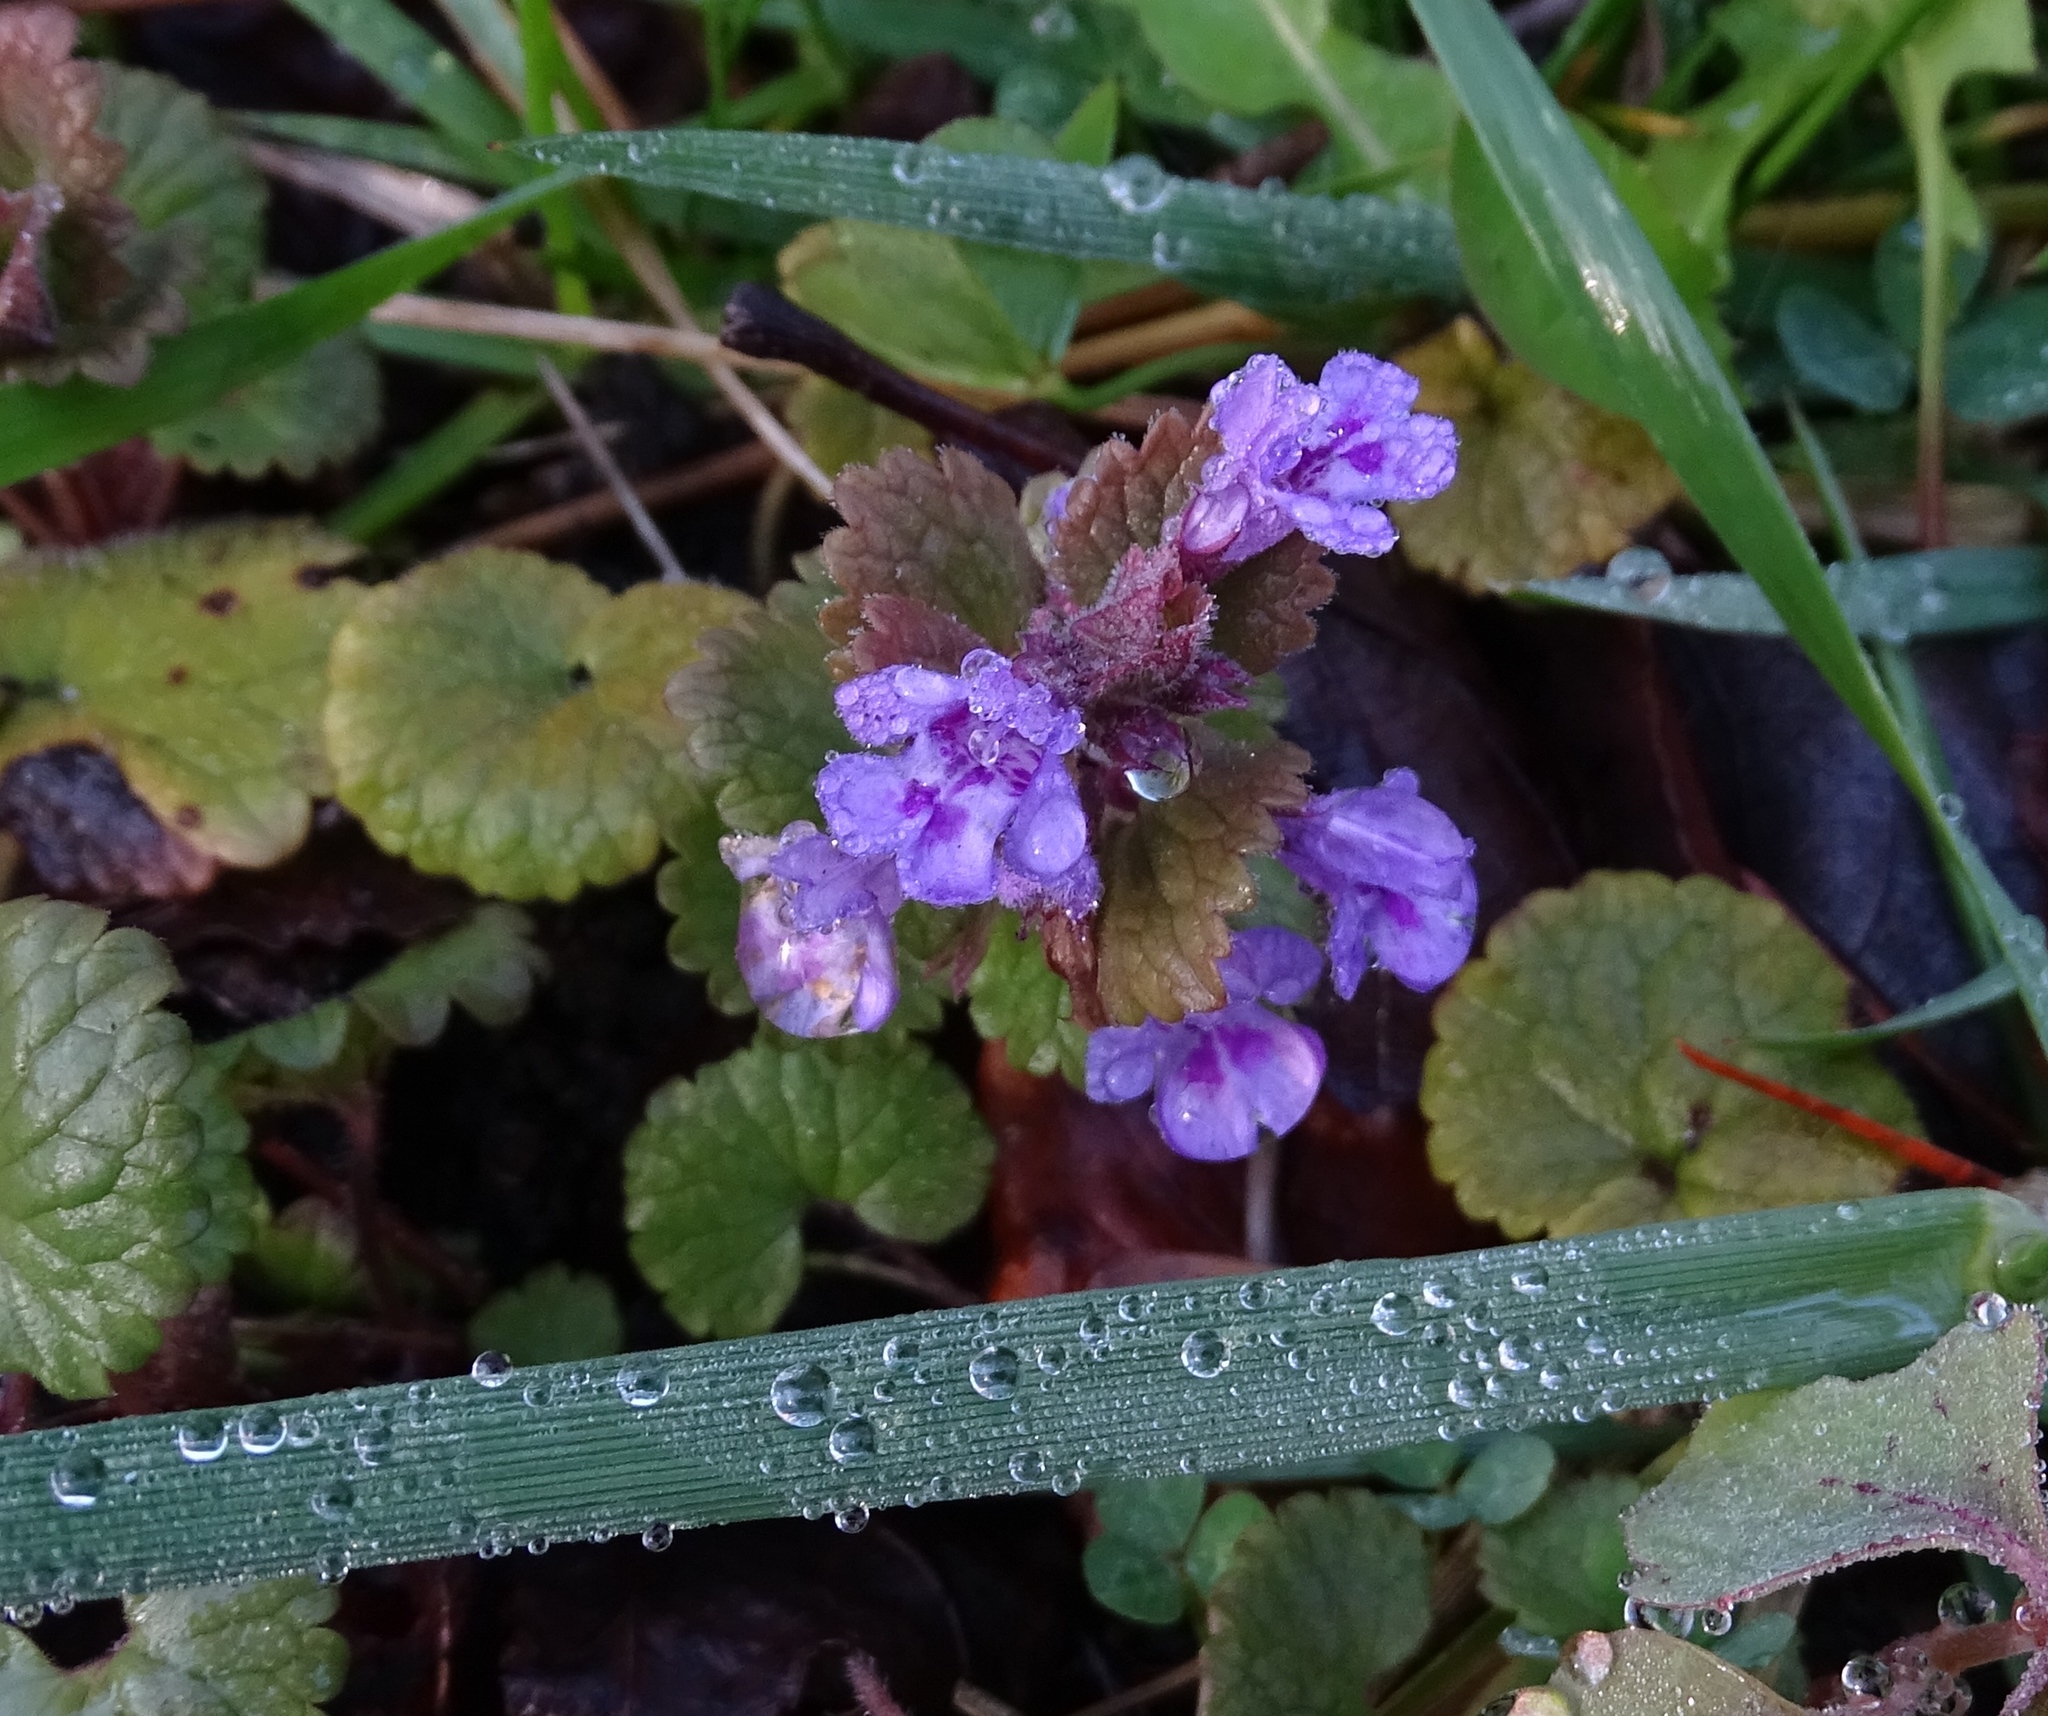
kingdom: Plantae
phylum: Tracheophyta
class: Magnoliopsida
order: Lamiales
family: Lamiaceae
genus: Glechoma
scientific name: Glechoma hederacea
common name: Ground ivy
